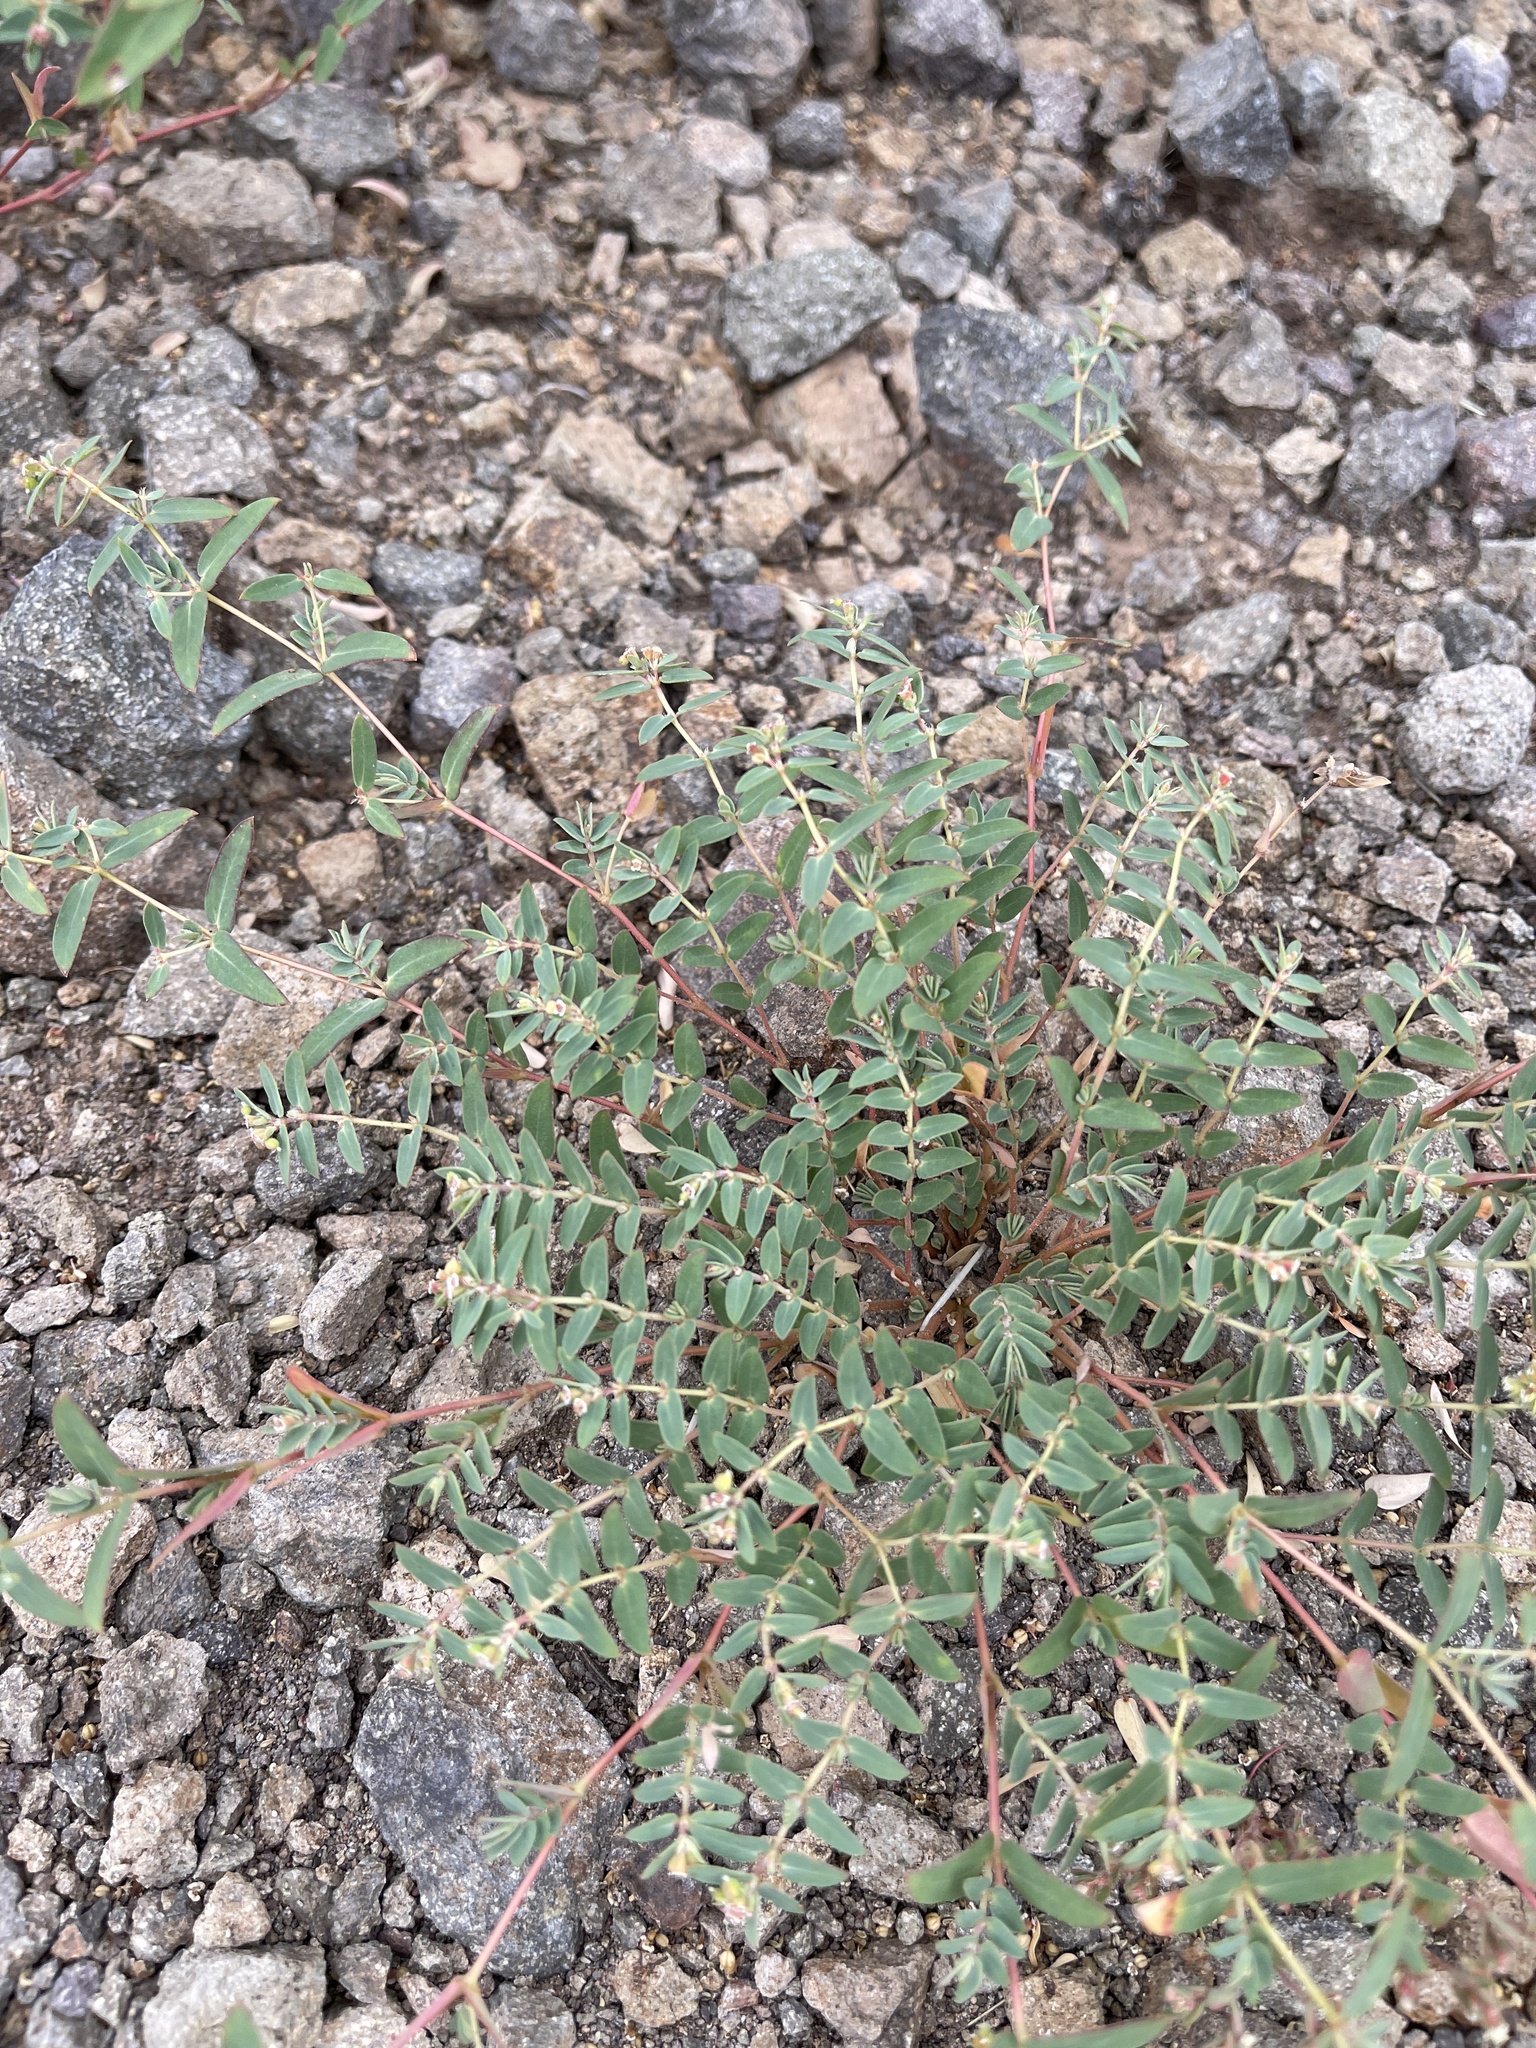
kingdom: Plantae
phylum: Tracheophyta
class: Magnoliopsida
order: Malpighiales
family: Euphorbiaceae
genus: Euphorbia
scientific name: Euphorbia capitellata
